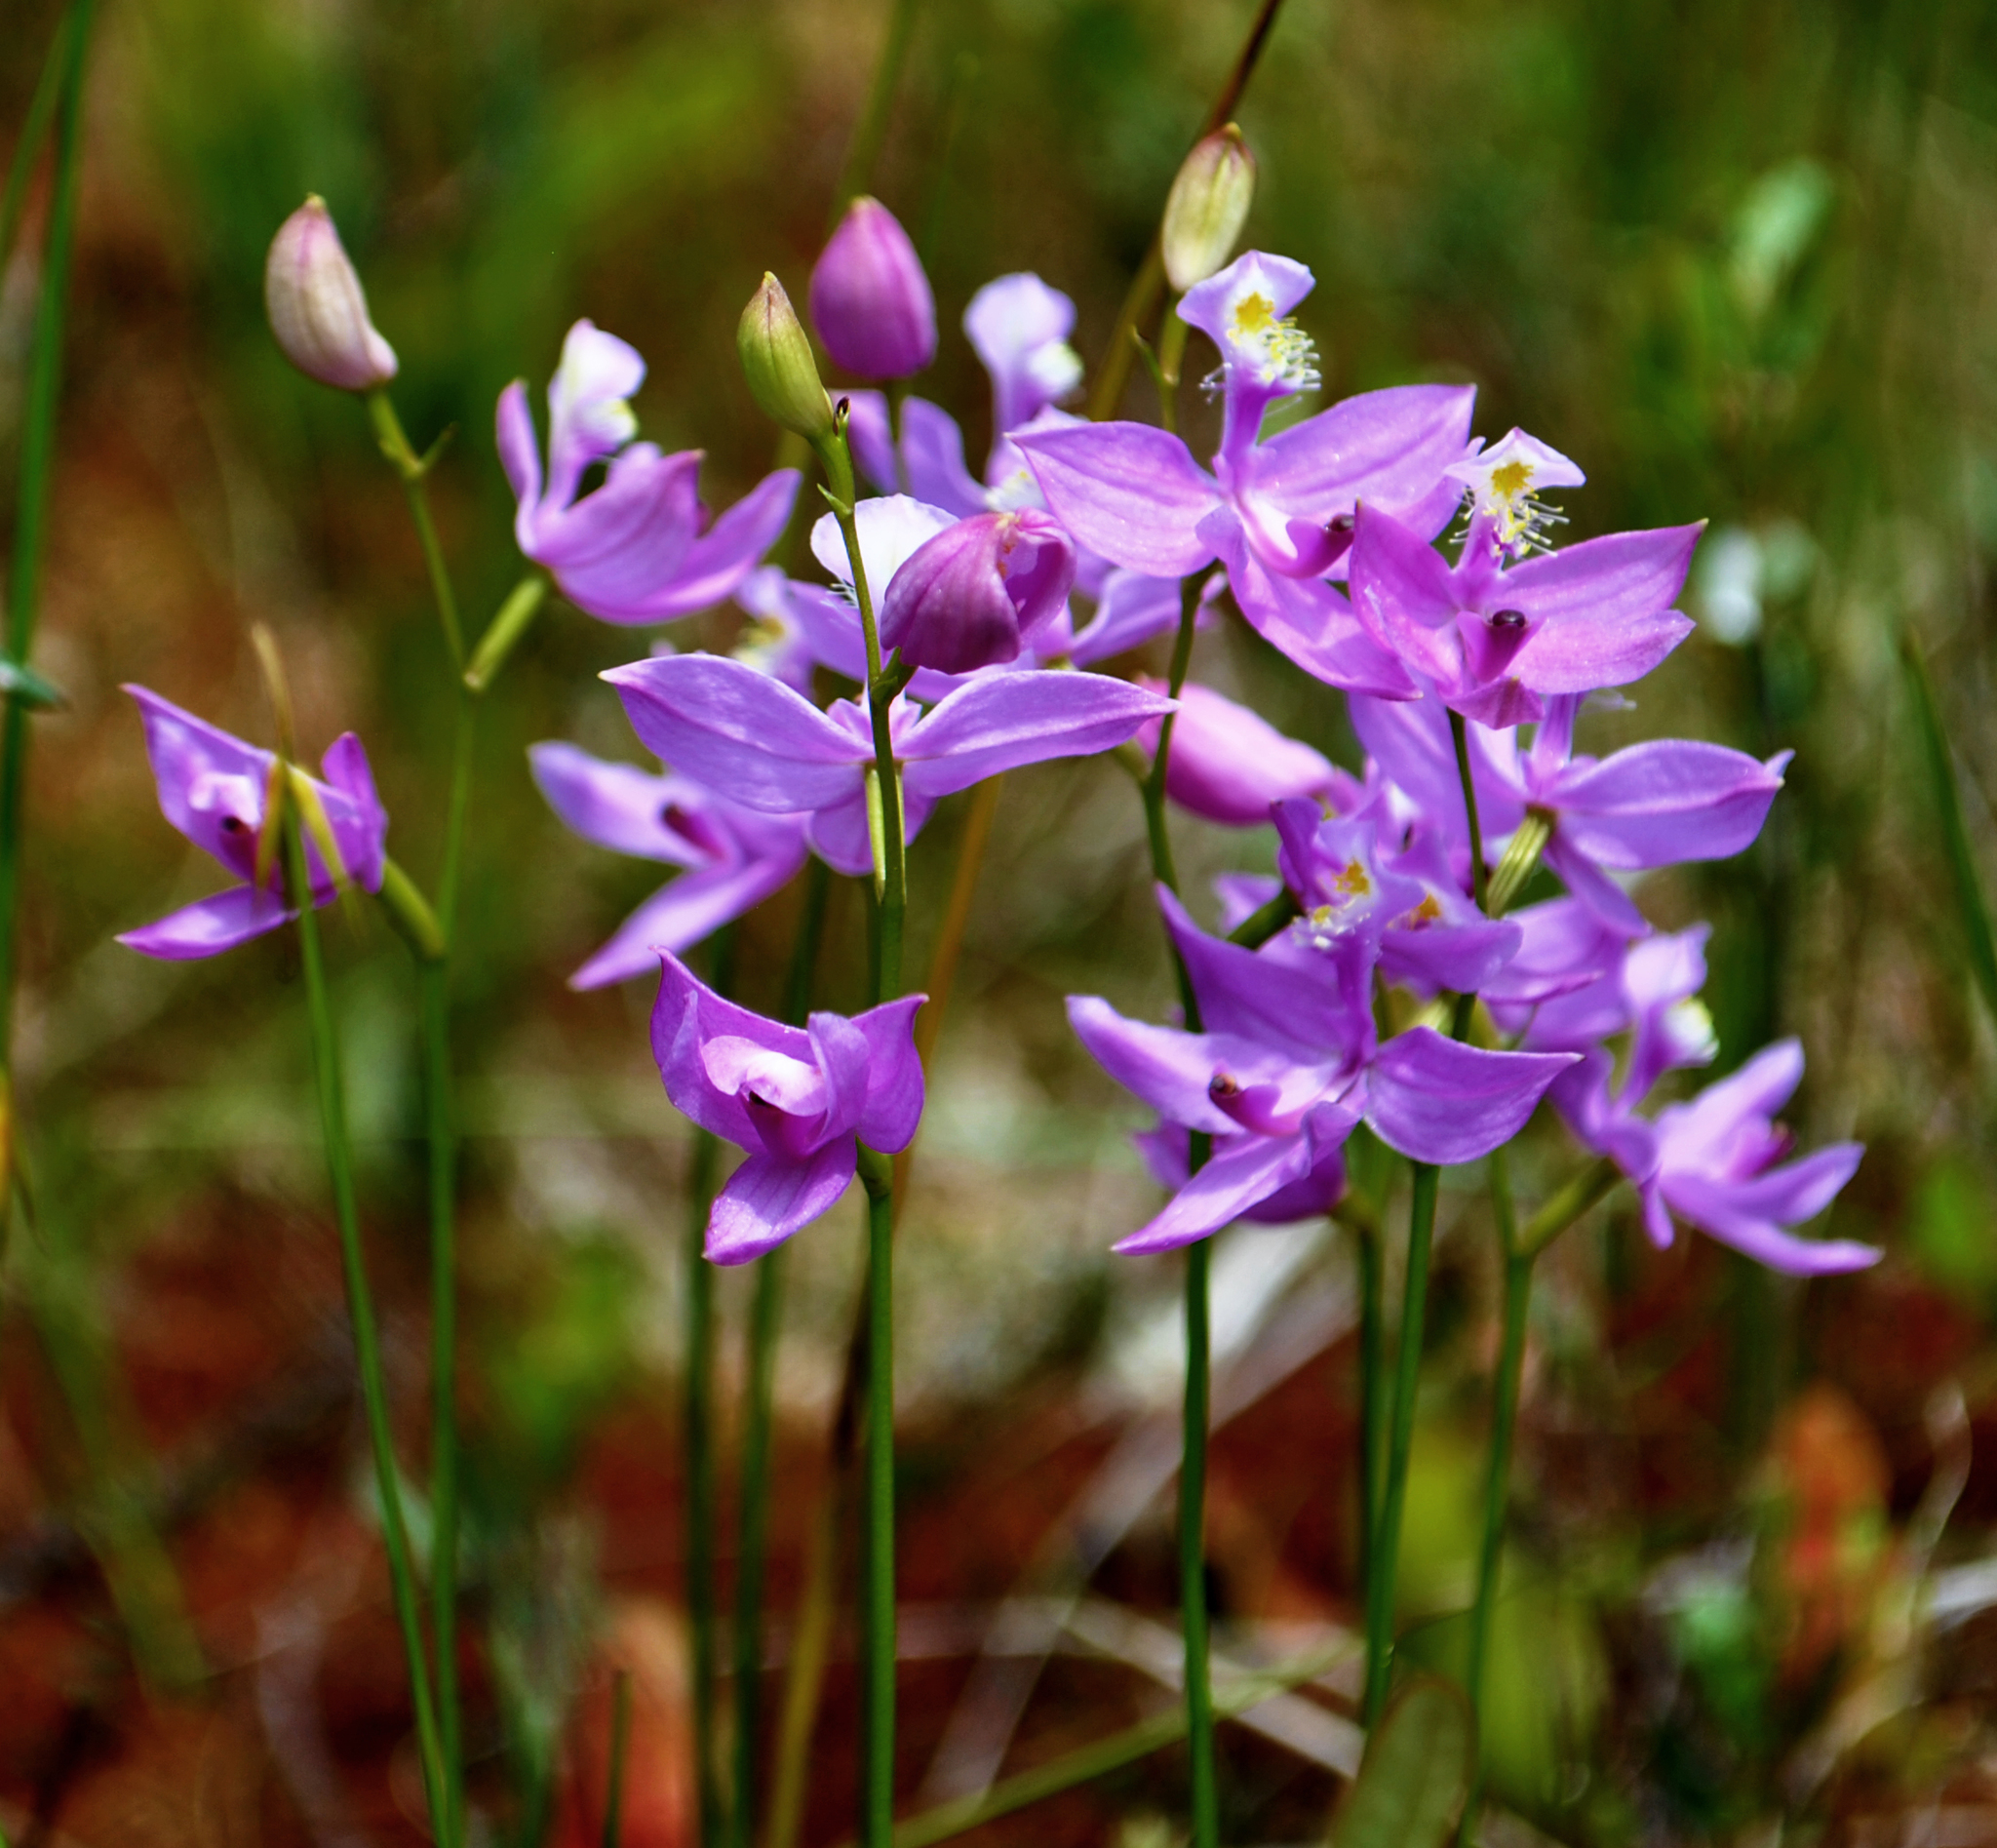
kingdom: Plantae
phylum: Tracheophyta
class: Liliopsida
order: Asparagales
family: Orchidaceae
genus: Calopogon
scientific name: Calopogon tuberosus
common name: Grass-pink
